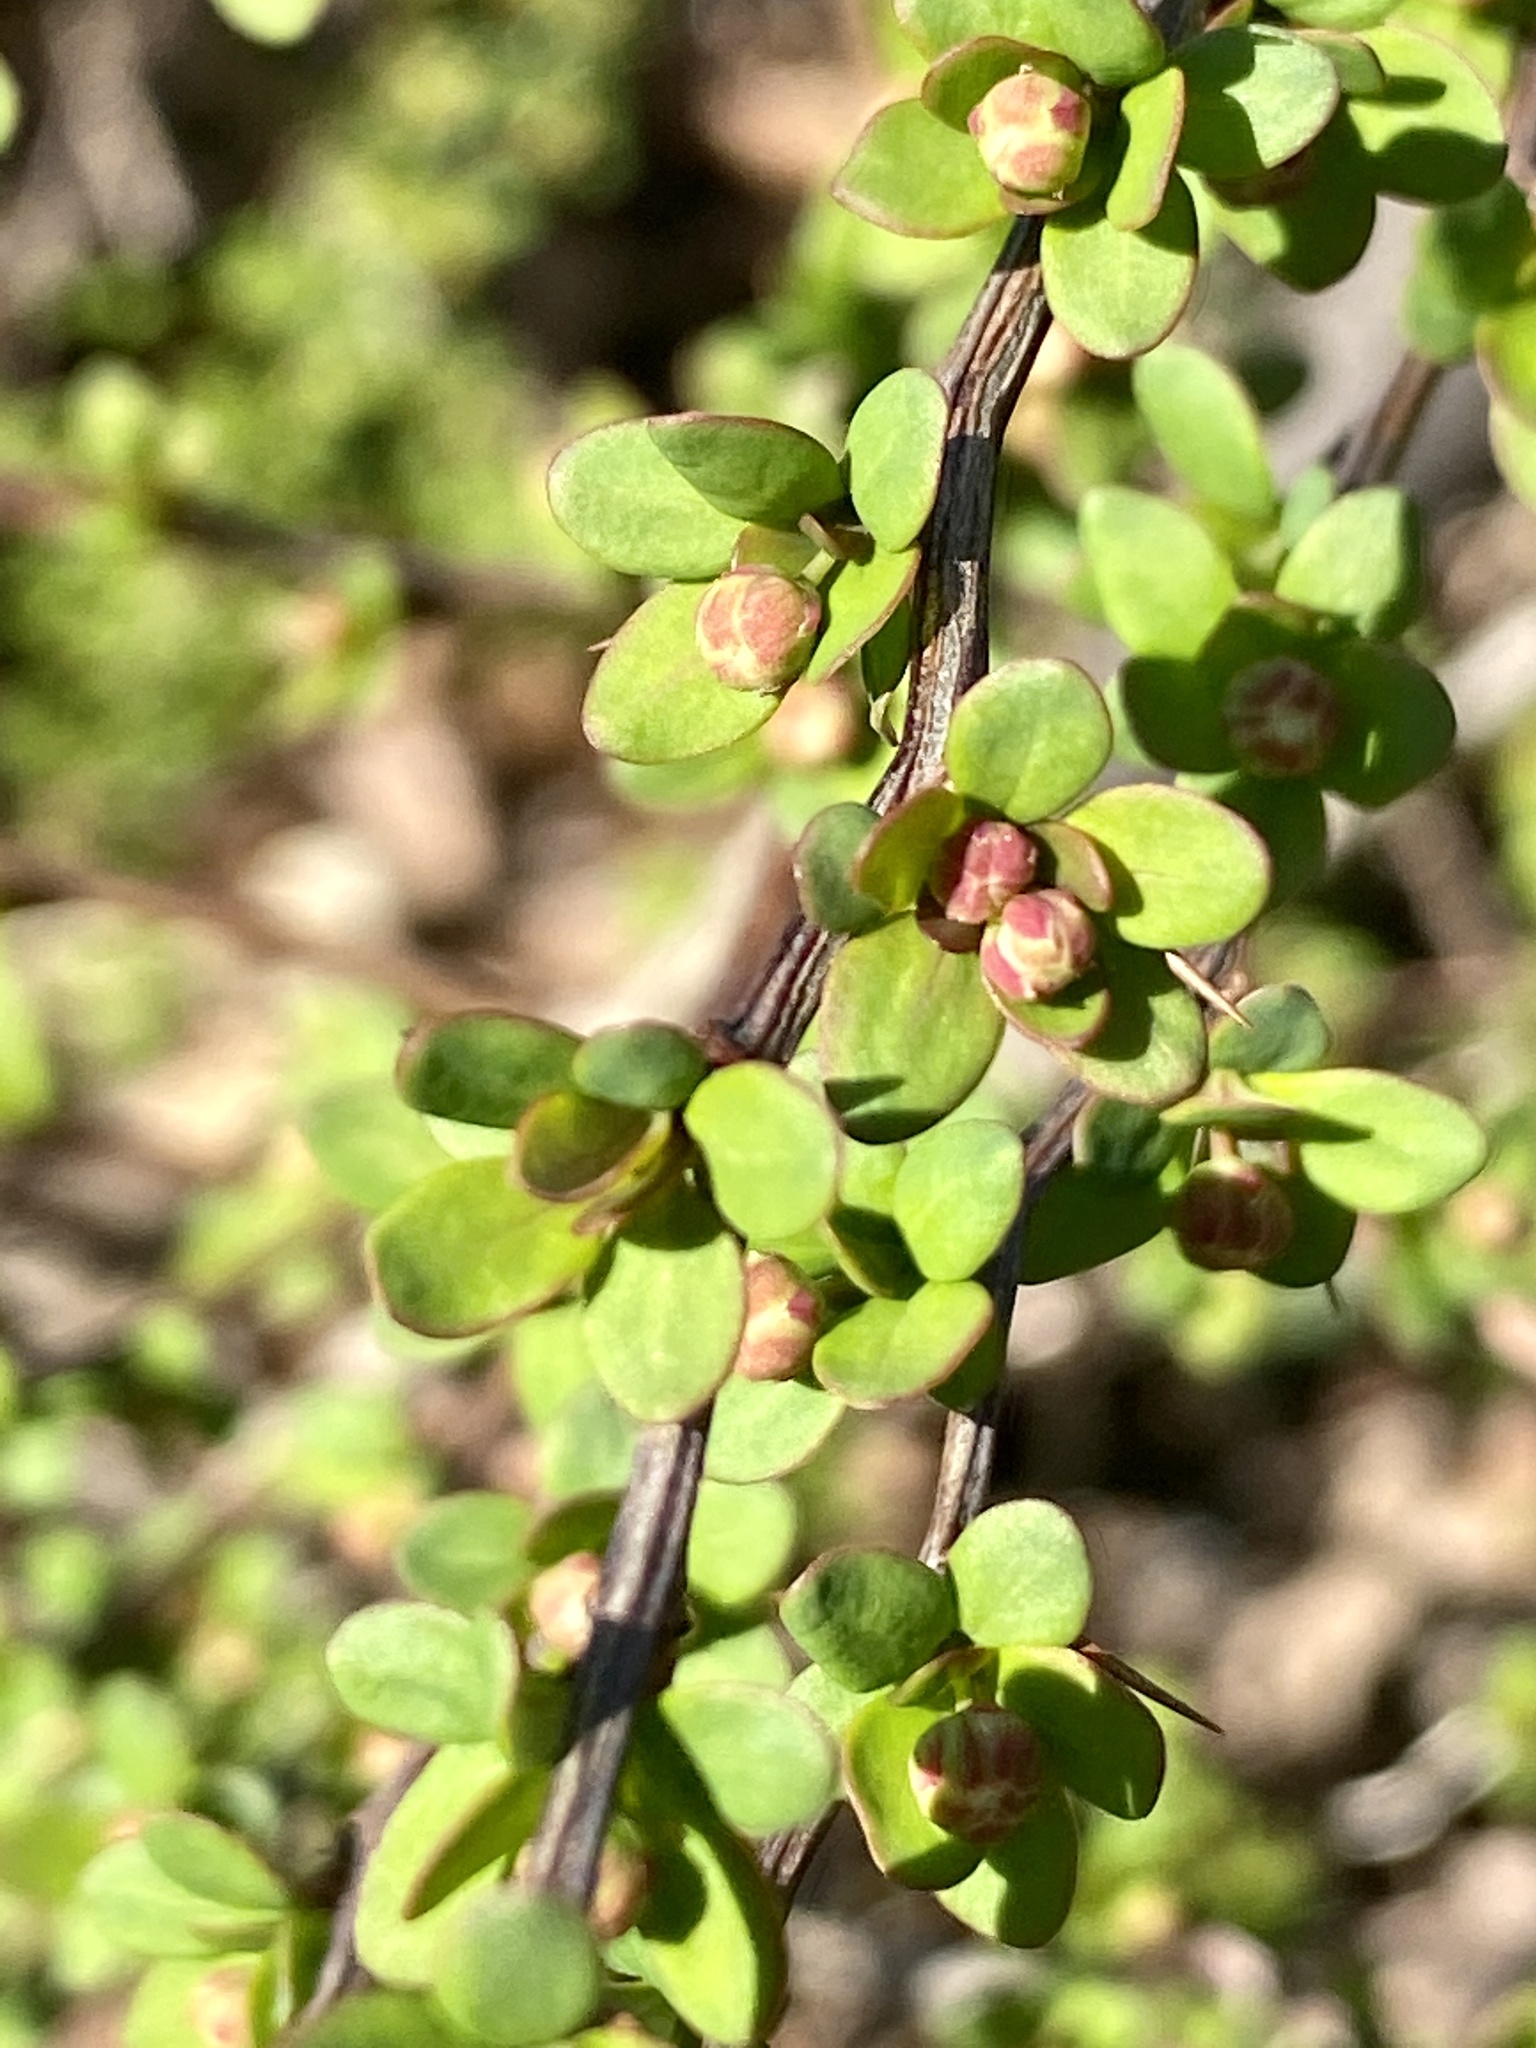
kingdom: Plantae
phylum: Tracheophyta
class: Magnoliopsida
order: Ranunculales
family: Berberidaceae
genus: Berberis
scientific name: Berberis thunbergii
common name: Japanese barberry
